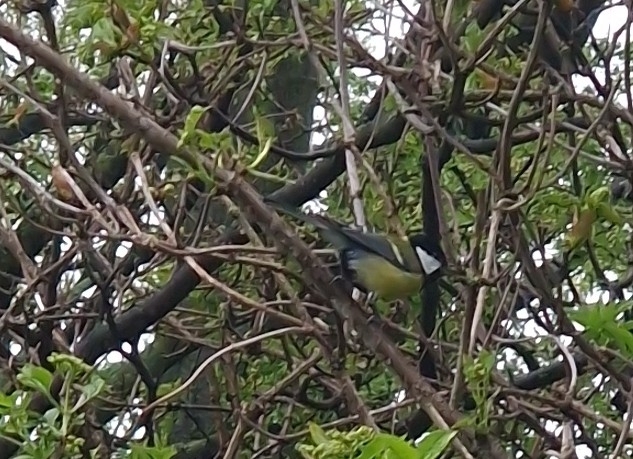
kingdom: Animalia
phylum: Chordata
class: Aves
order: Passeriformes
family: Paridae
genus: Parus
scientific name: Parus major
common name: Great tit
